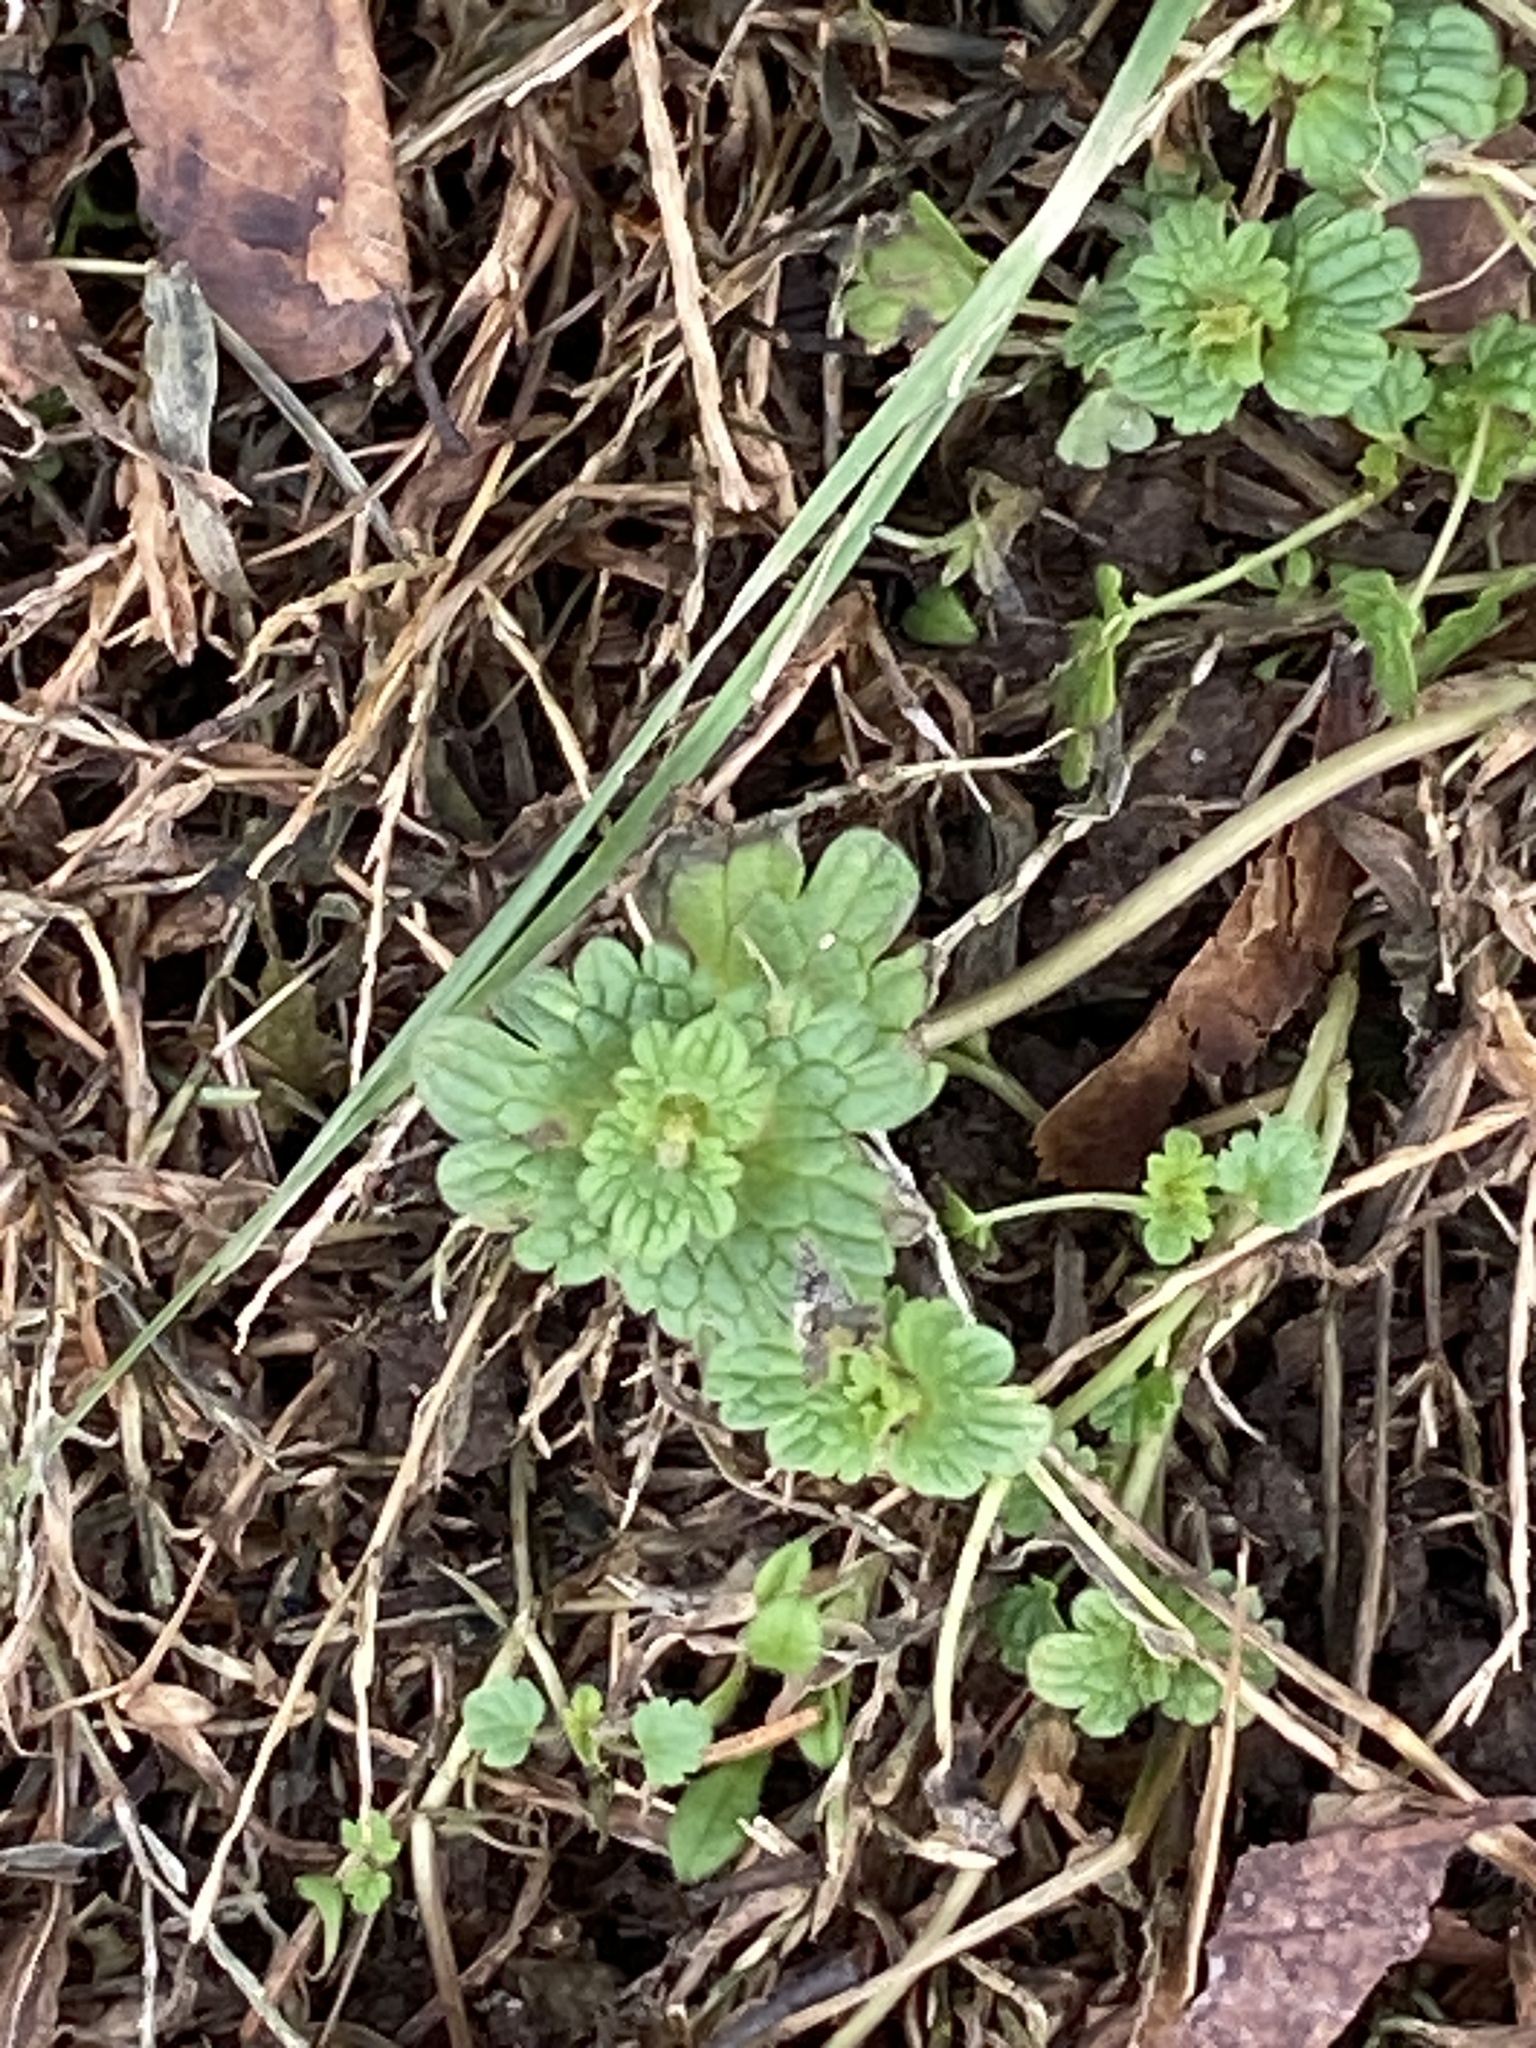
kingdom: Plantae
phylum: Tracheophyta
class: Magnoliopsida
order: Lamiales
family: Lamiaceae
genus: Lamium
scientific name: Lamium amplexicaule
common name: Henbit dead-nettle
